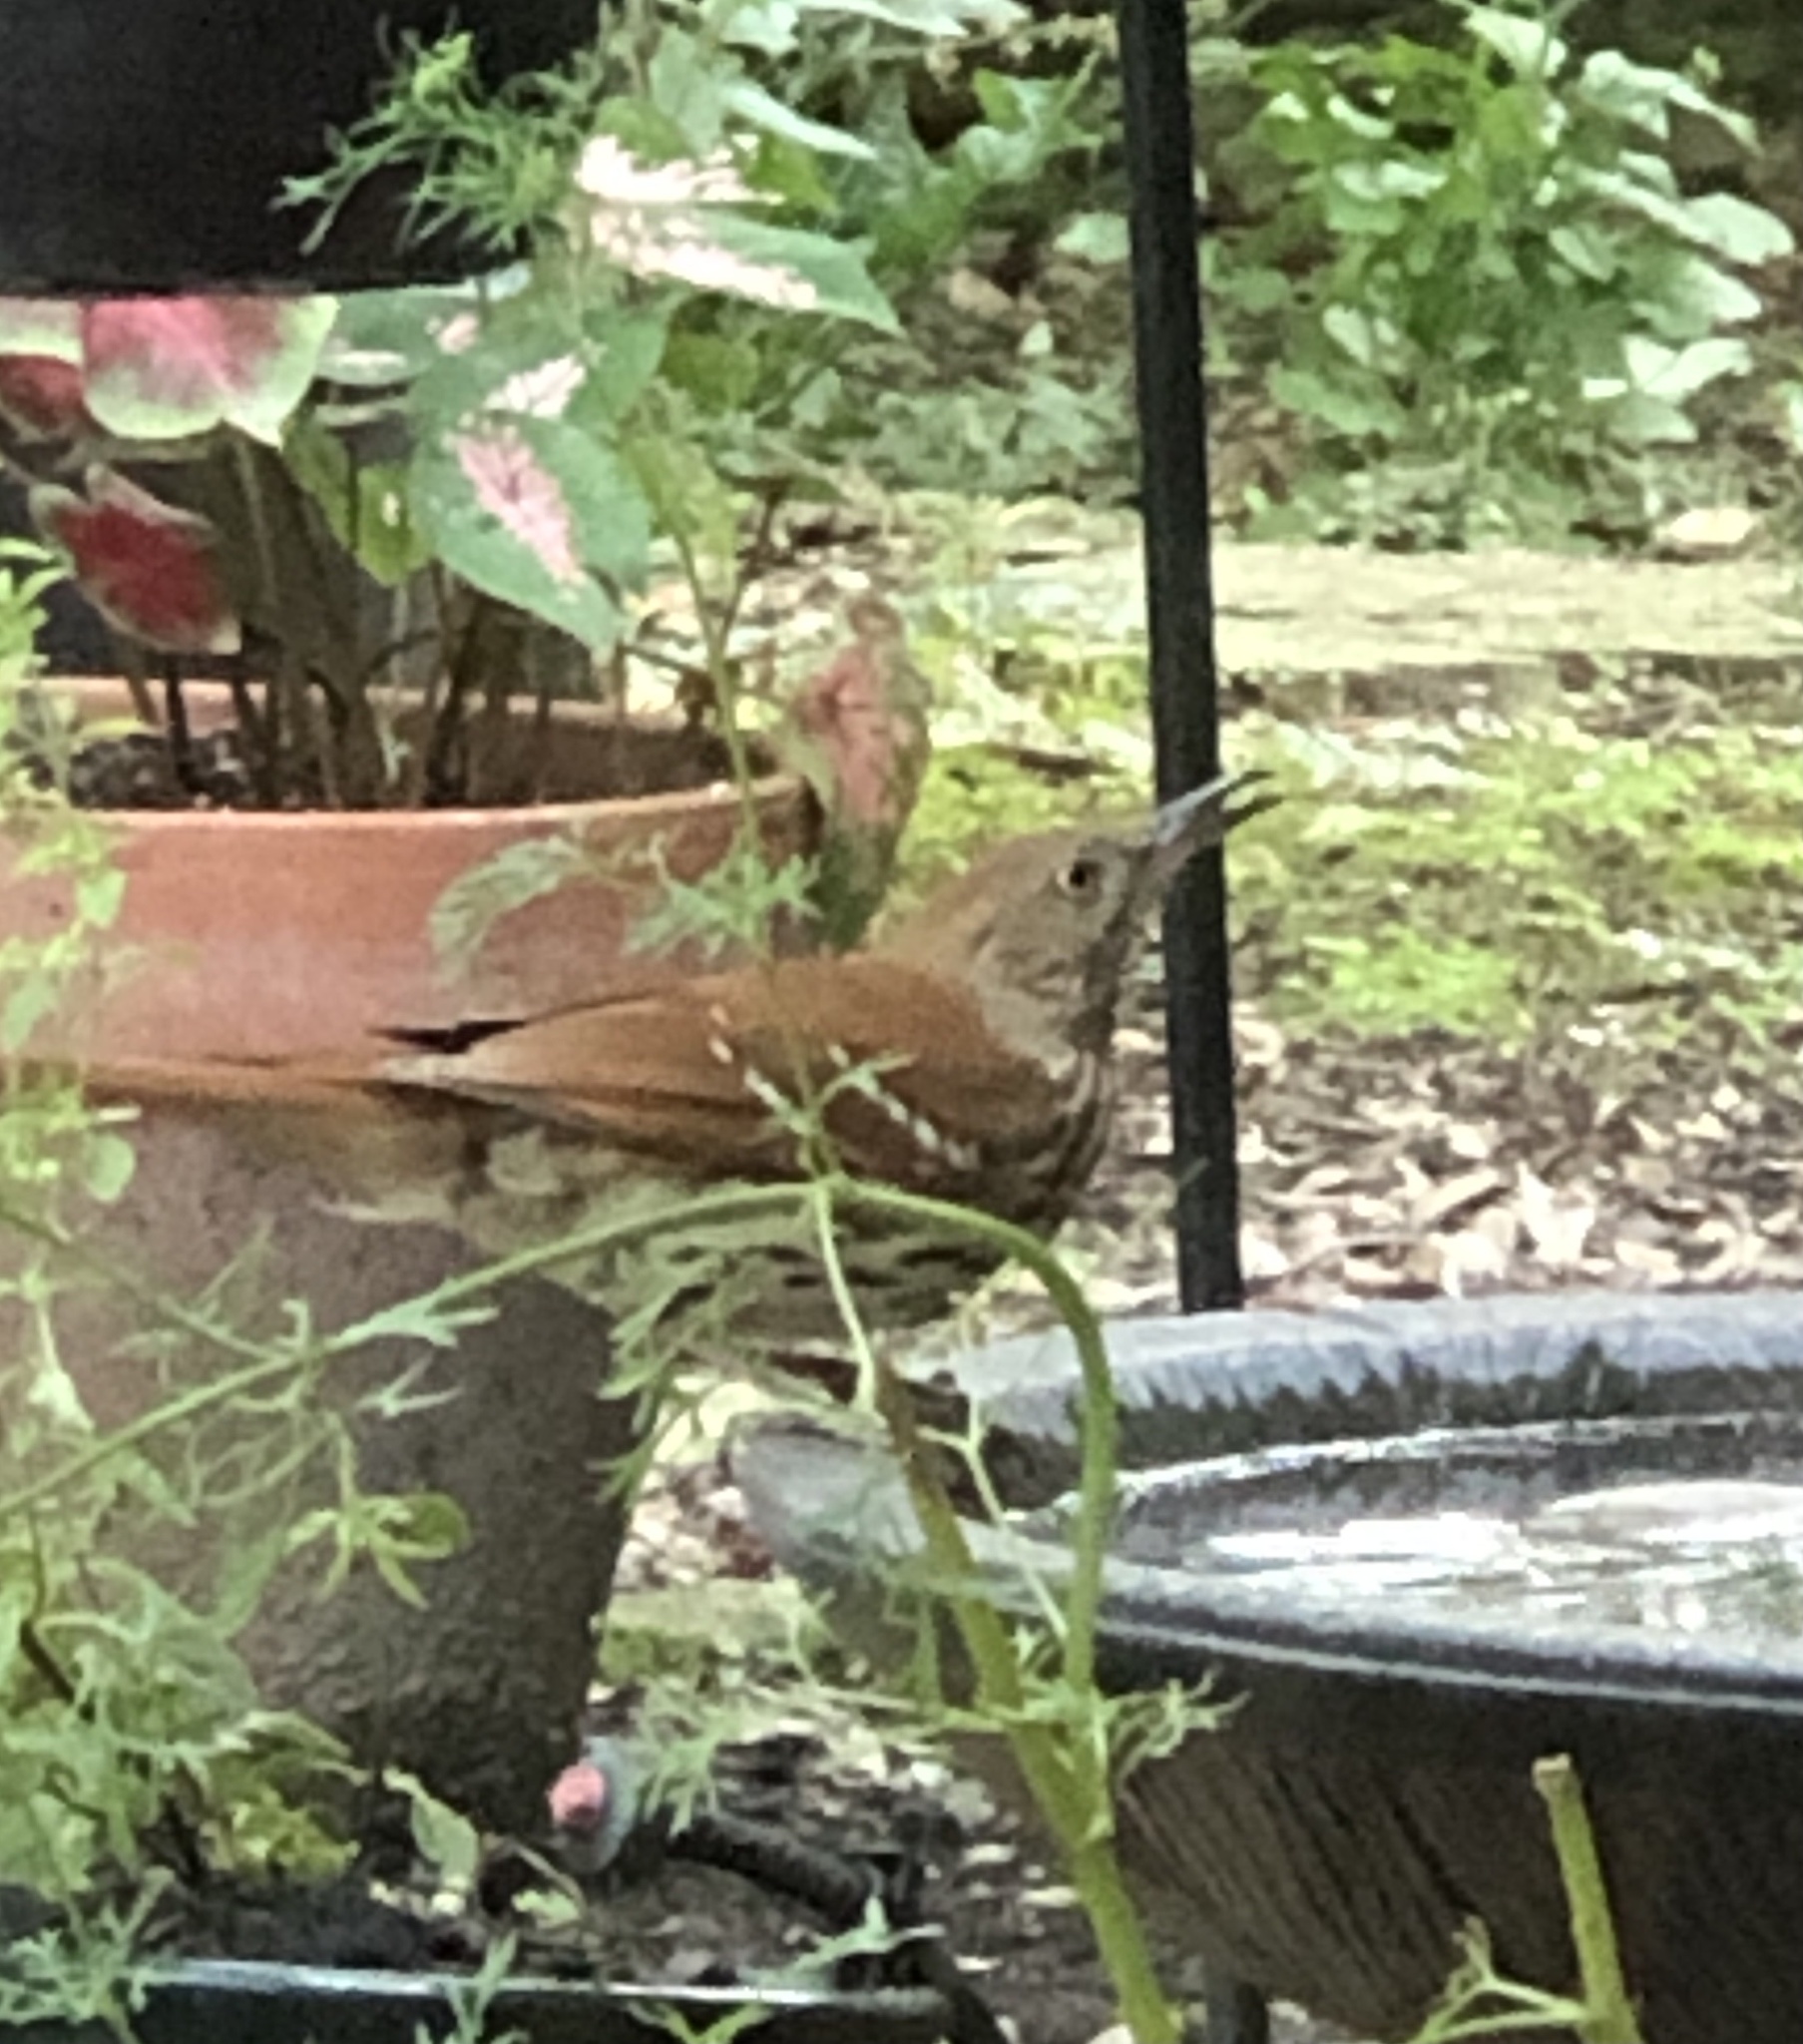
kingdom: Animalia
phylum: Chordata
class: Aves
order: Passeriformes
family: Mimidae
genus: Toxostoma
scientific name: Toxostoma rufum
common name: Brown thrasher
